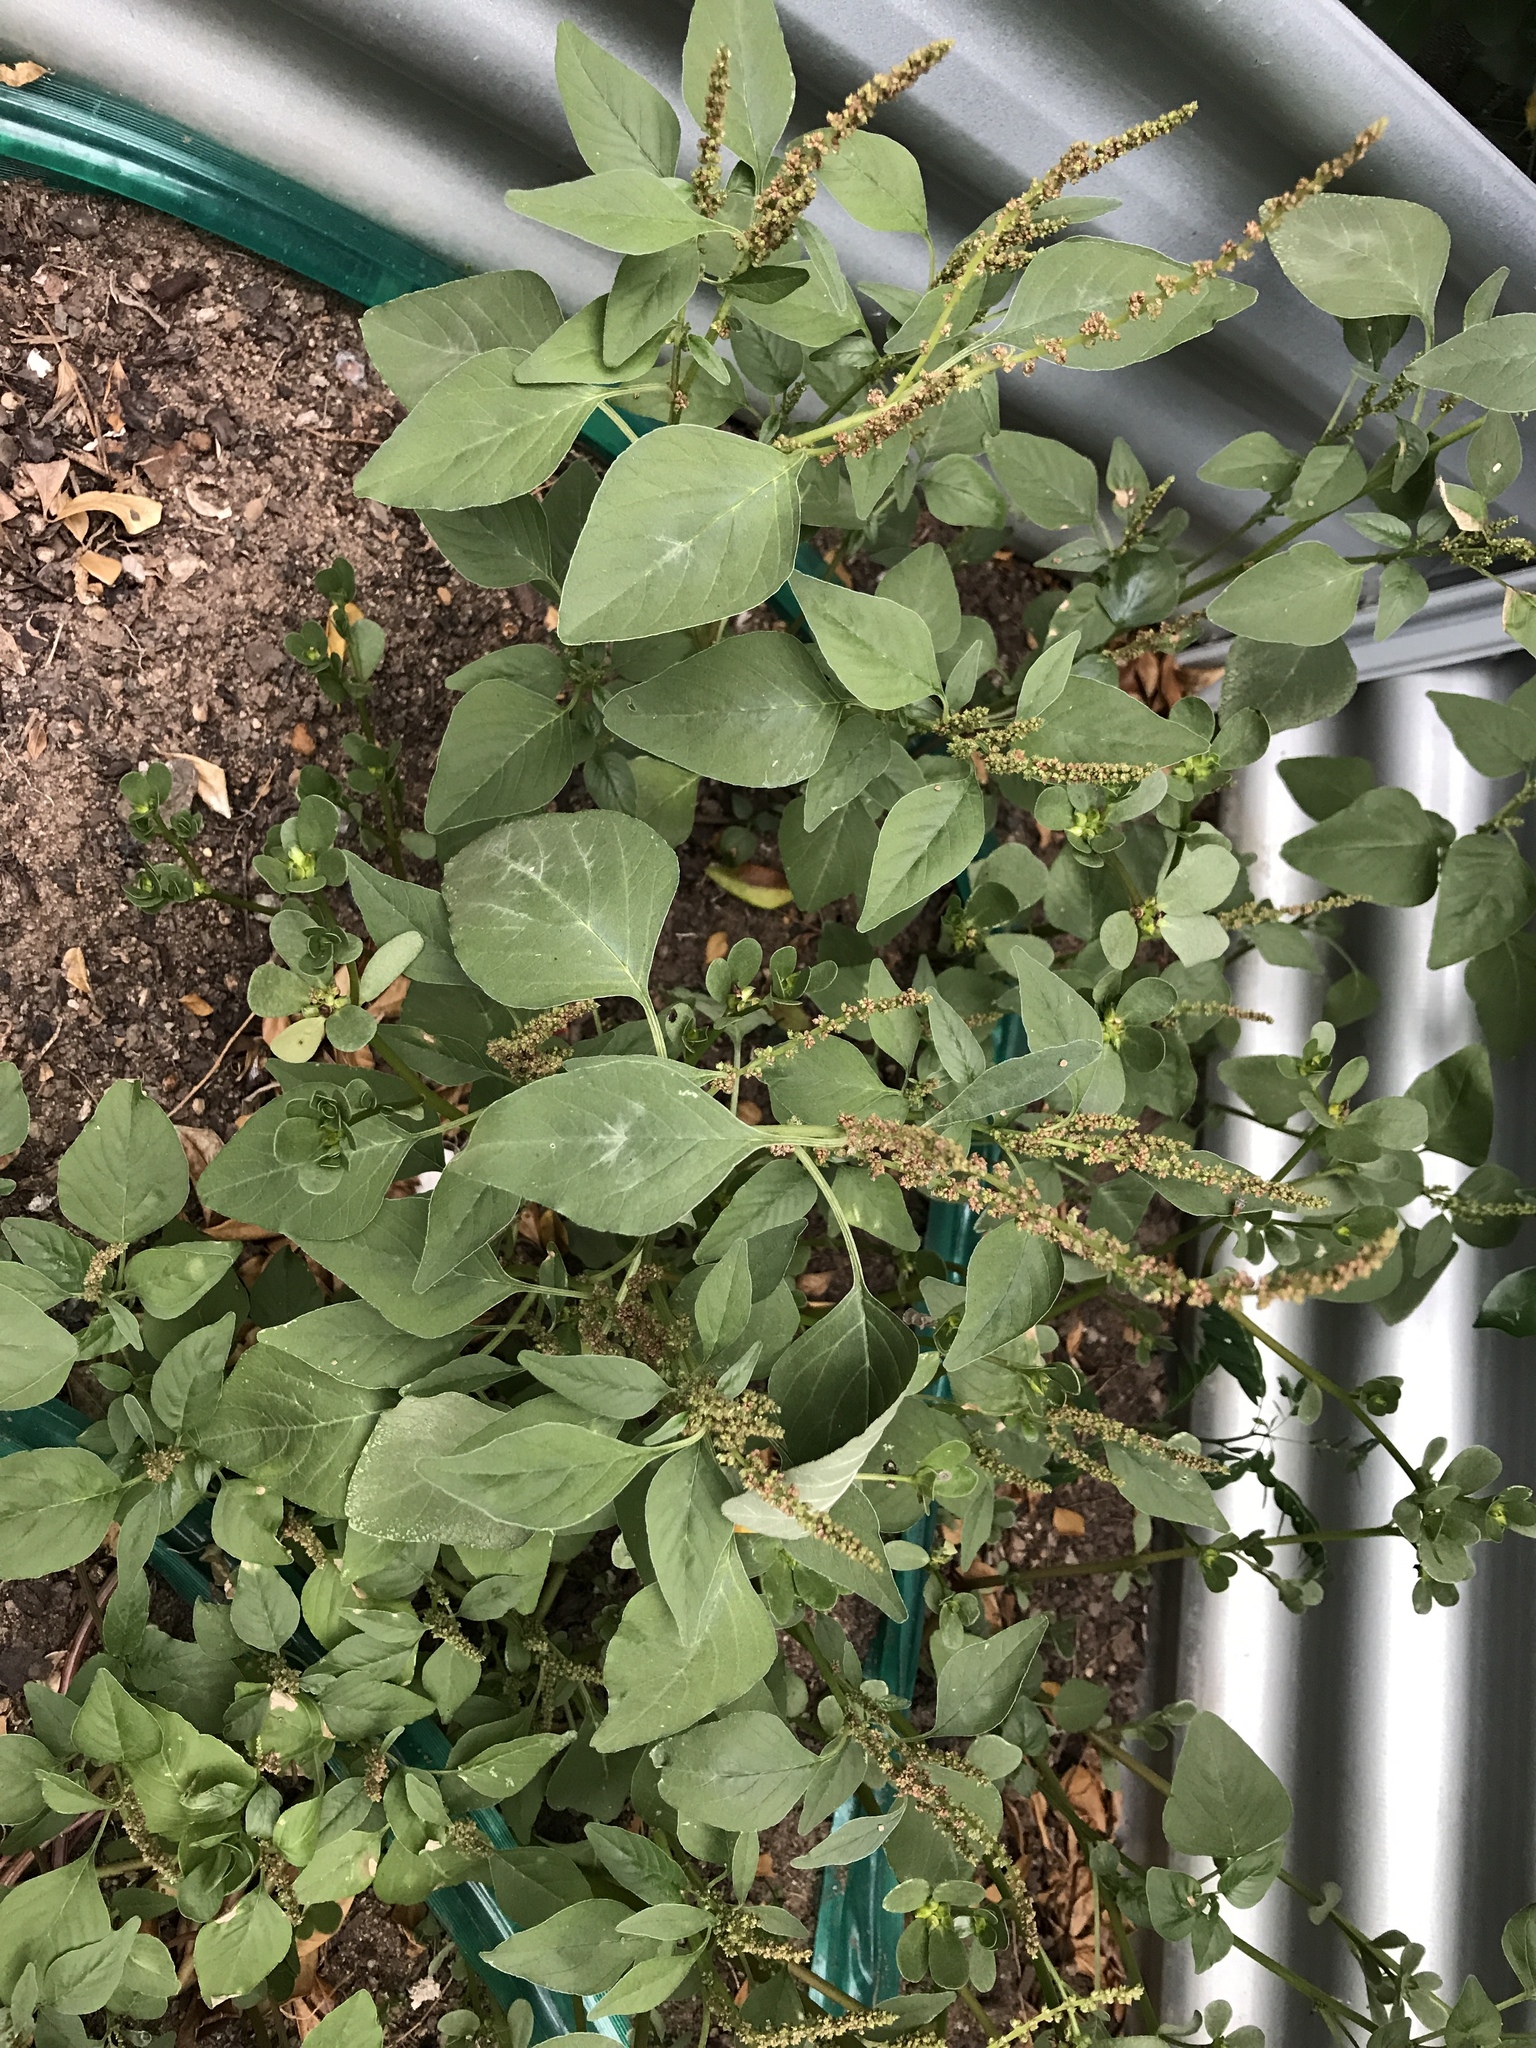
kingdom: Plantae
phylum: Tracheophyta
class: Magnoliopsida
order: Caryophyllales
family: Amaranthaceae
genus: Amaranthus
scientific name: Amaranthus viridis
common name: Slender amaranth
